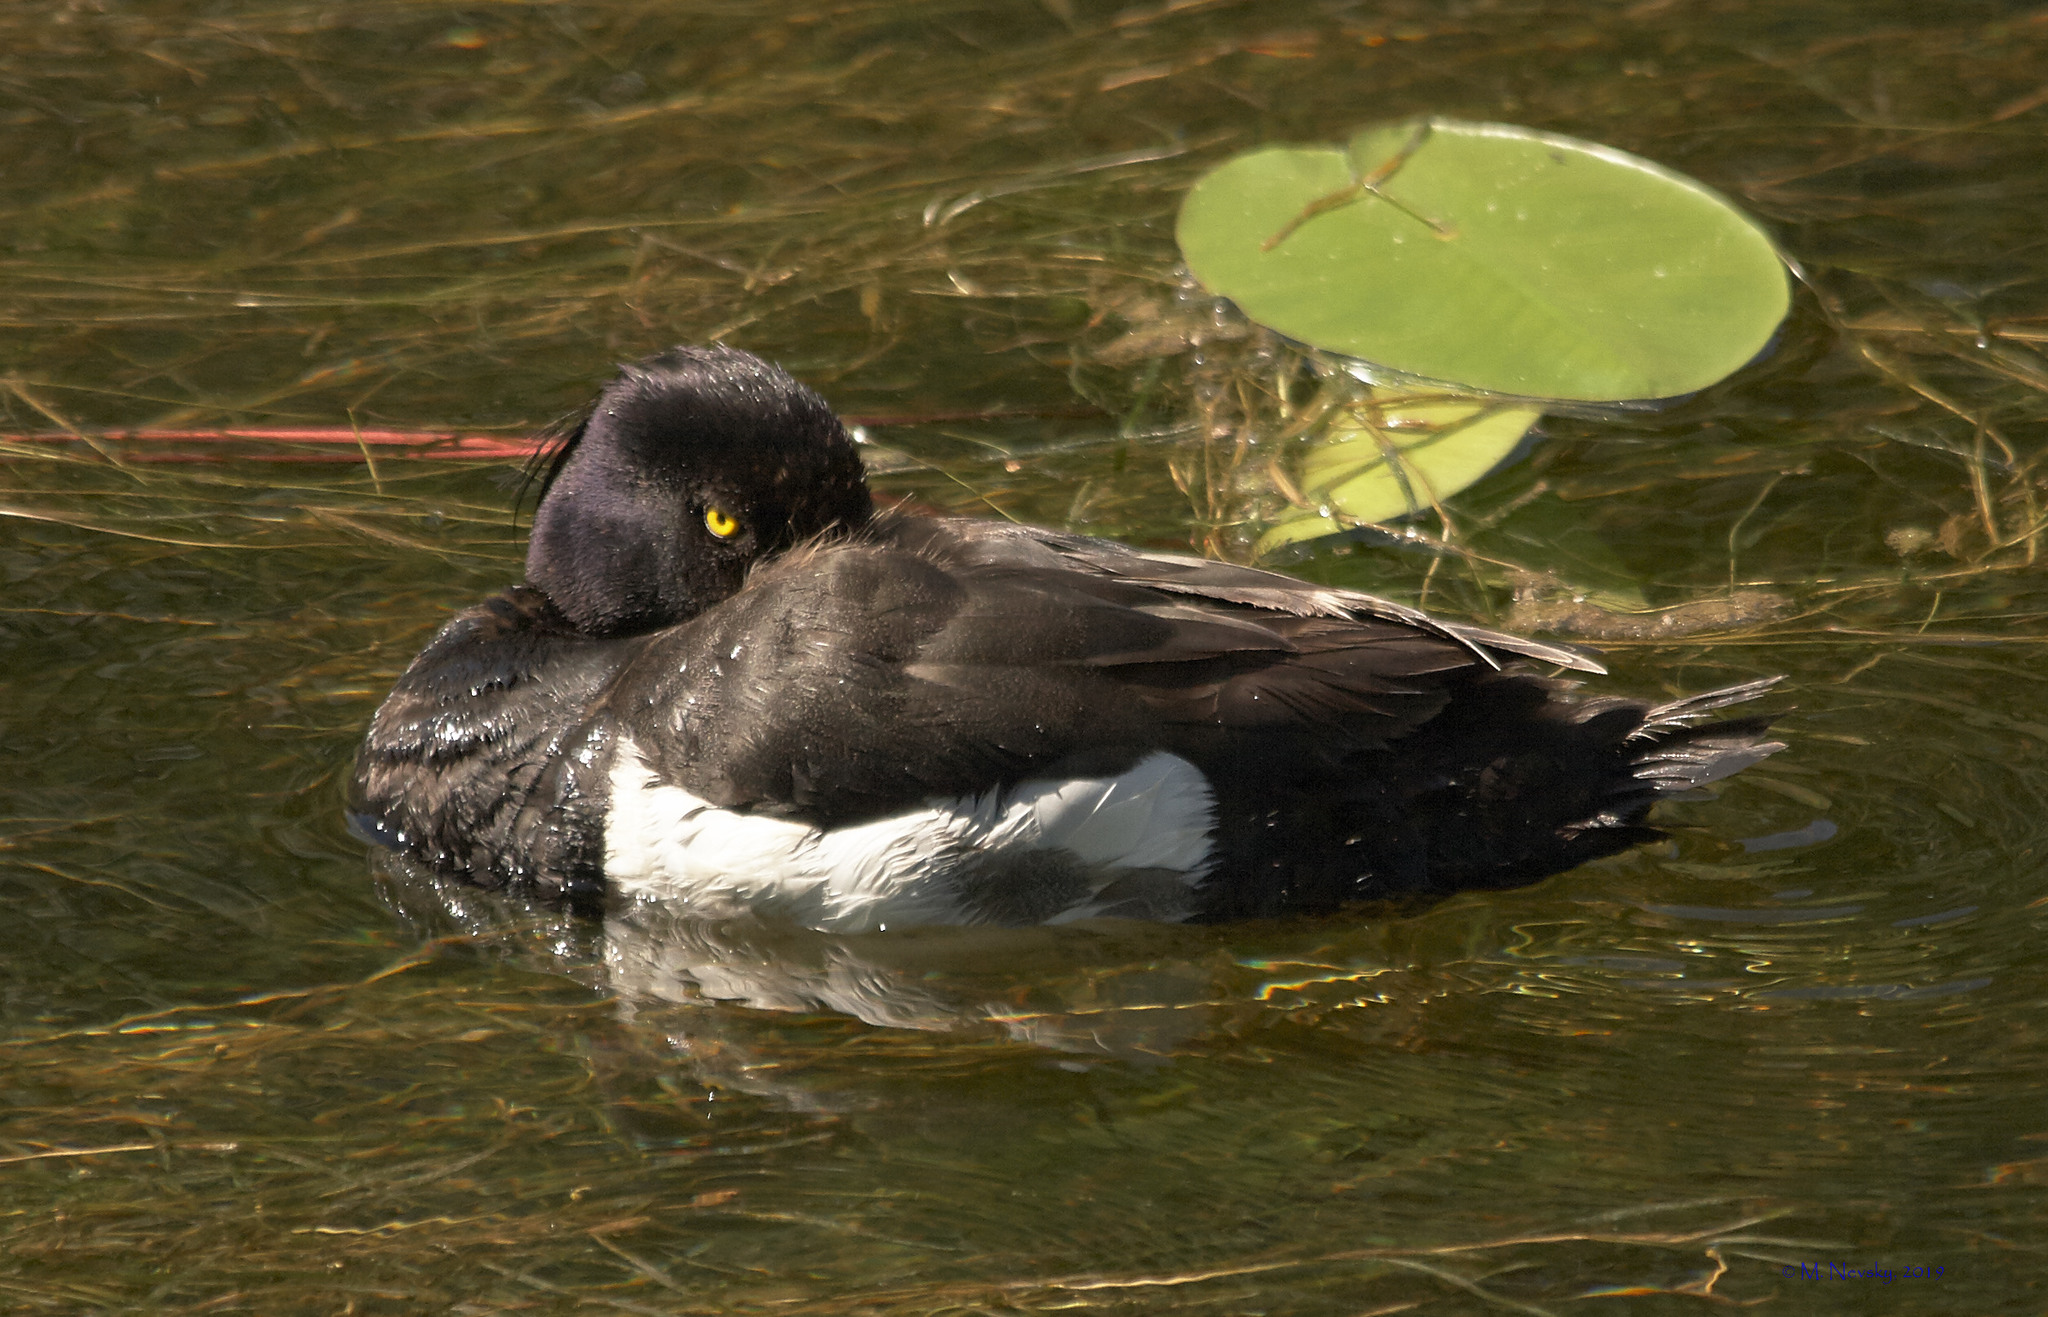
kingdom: Animalia
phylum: Chordata
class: Aves
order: Anseriformes
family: Anatidae
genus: Aythya
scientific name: Aythya fuligula
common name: Tufted duck
